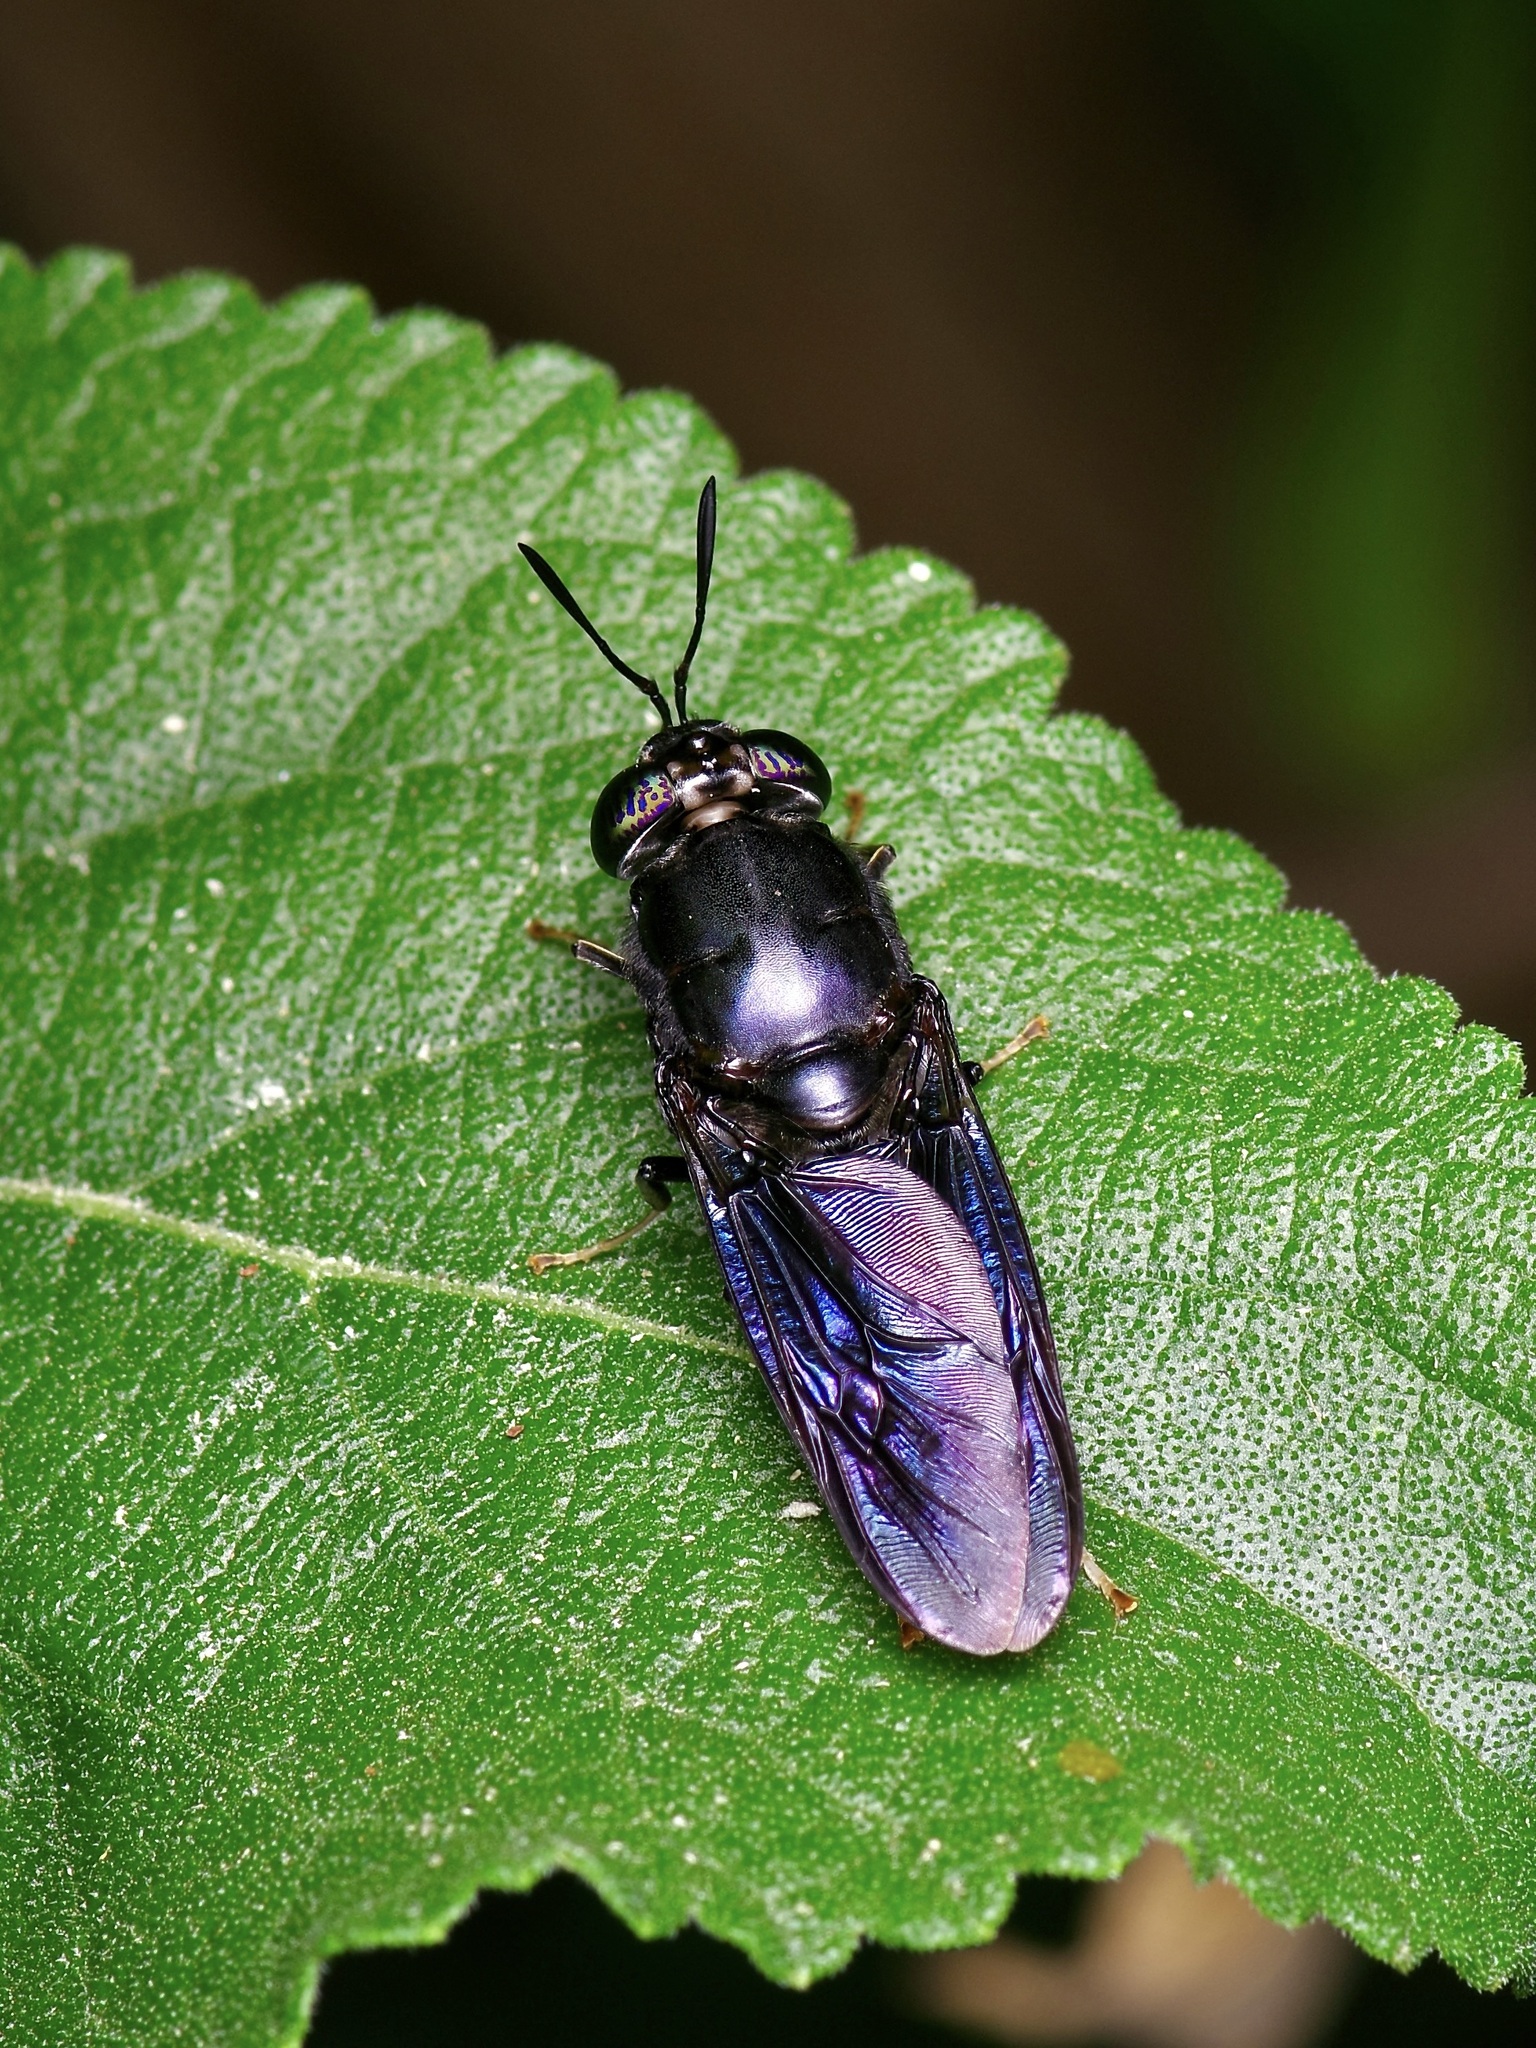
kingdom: Animalia
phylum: Arthropoda
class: Insecta
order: Diptera
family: Stratiomyidae
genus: Hermetia
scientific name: Hermetia illucens
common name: Black soldier fly
